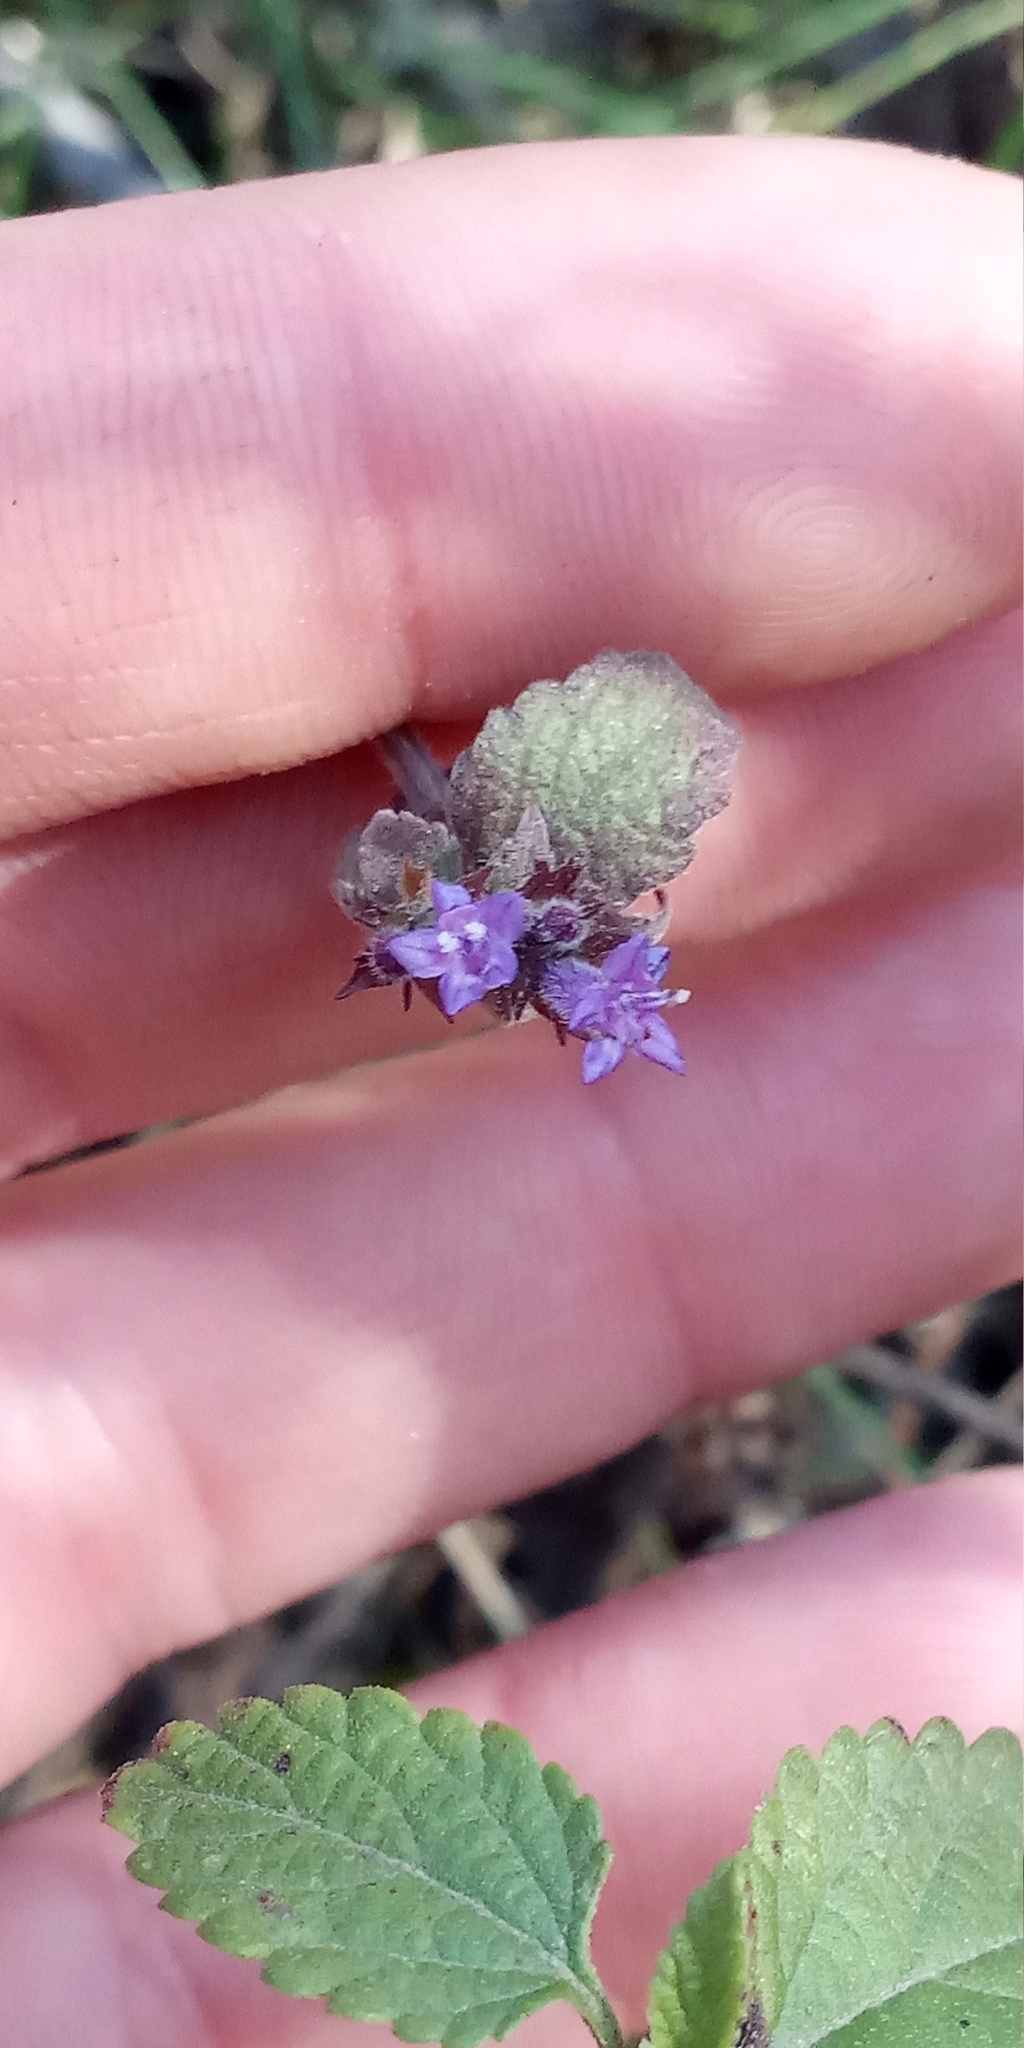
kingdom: Plantae
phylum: Tracheophyta
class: Magnoliopsida
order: Lamiales
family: Lamiaceae
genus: Cantinoa
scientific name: Cantinoa mutabilis
